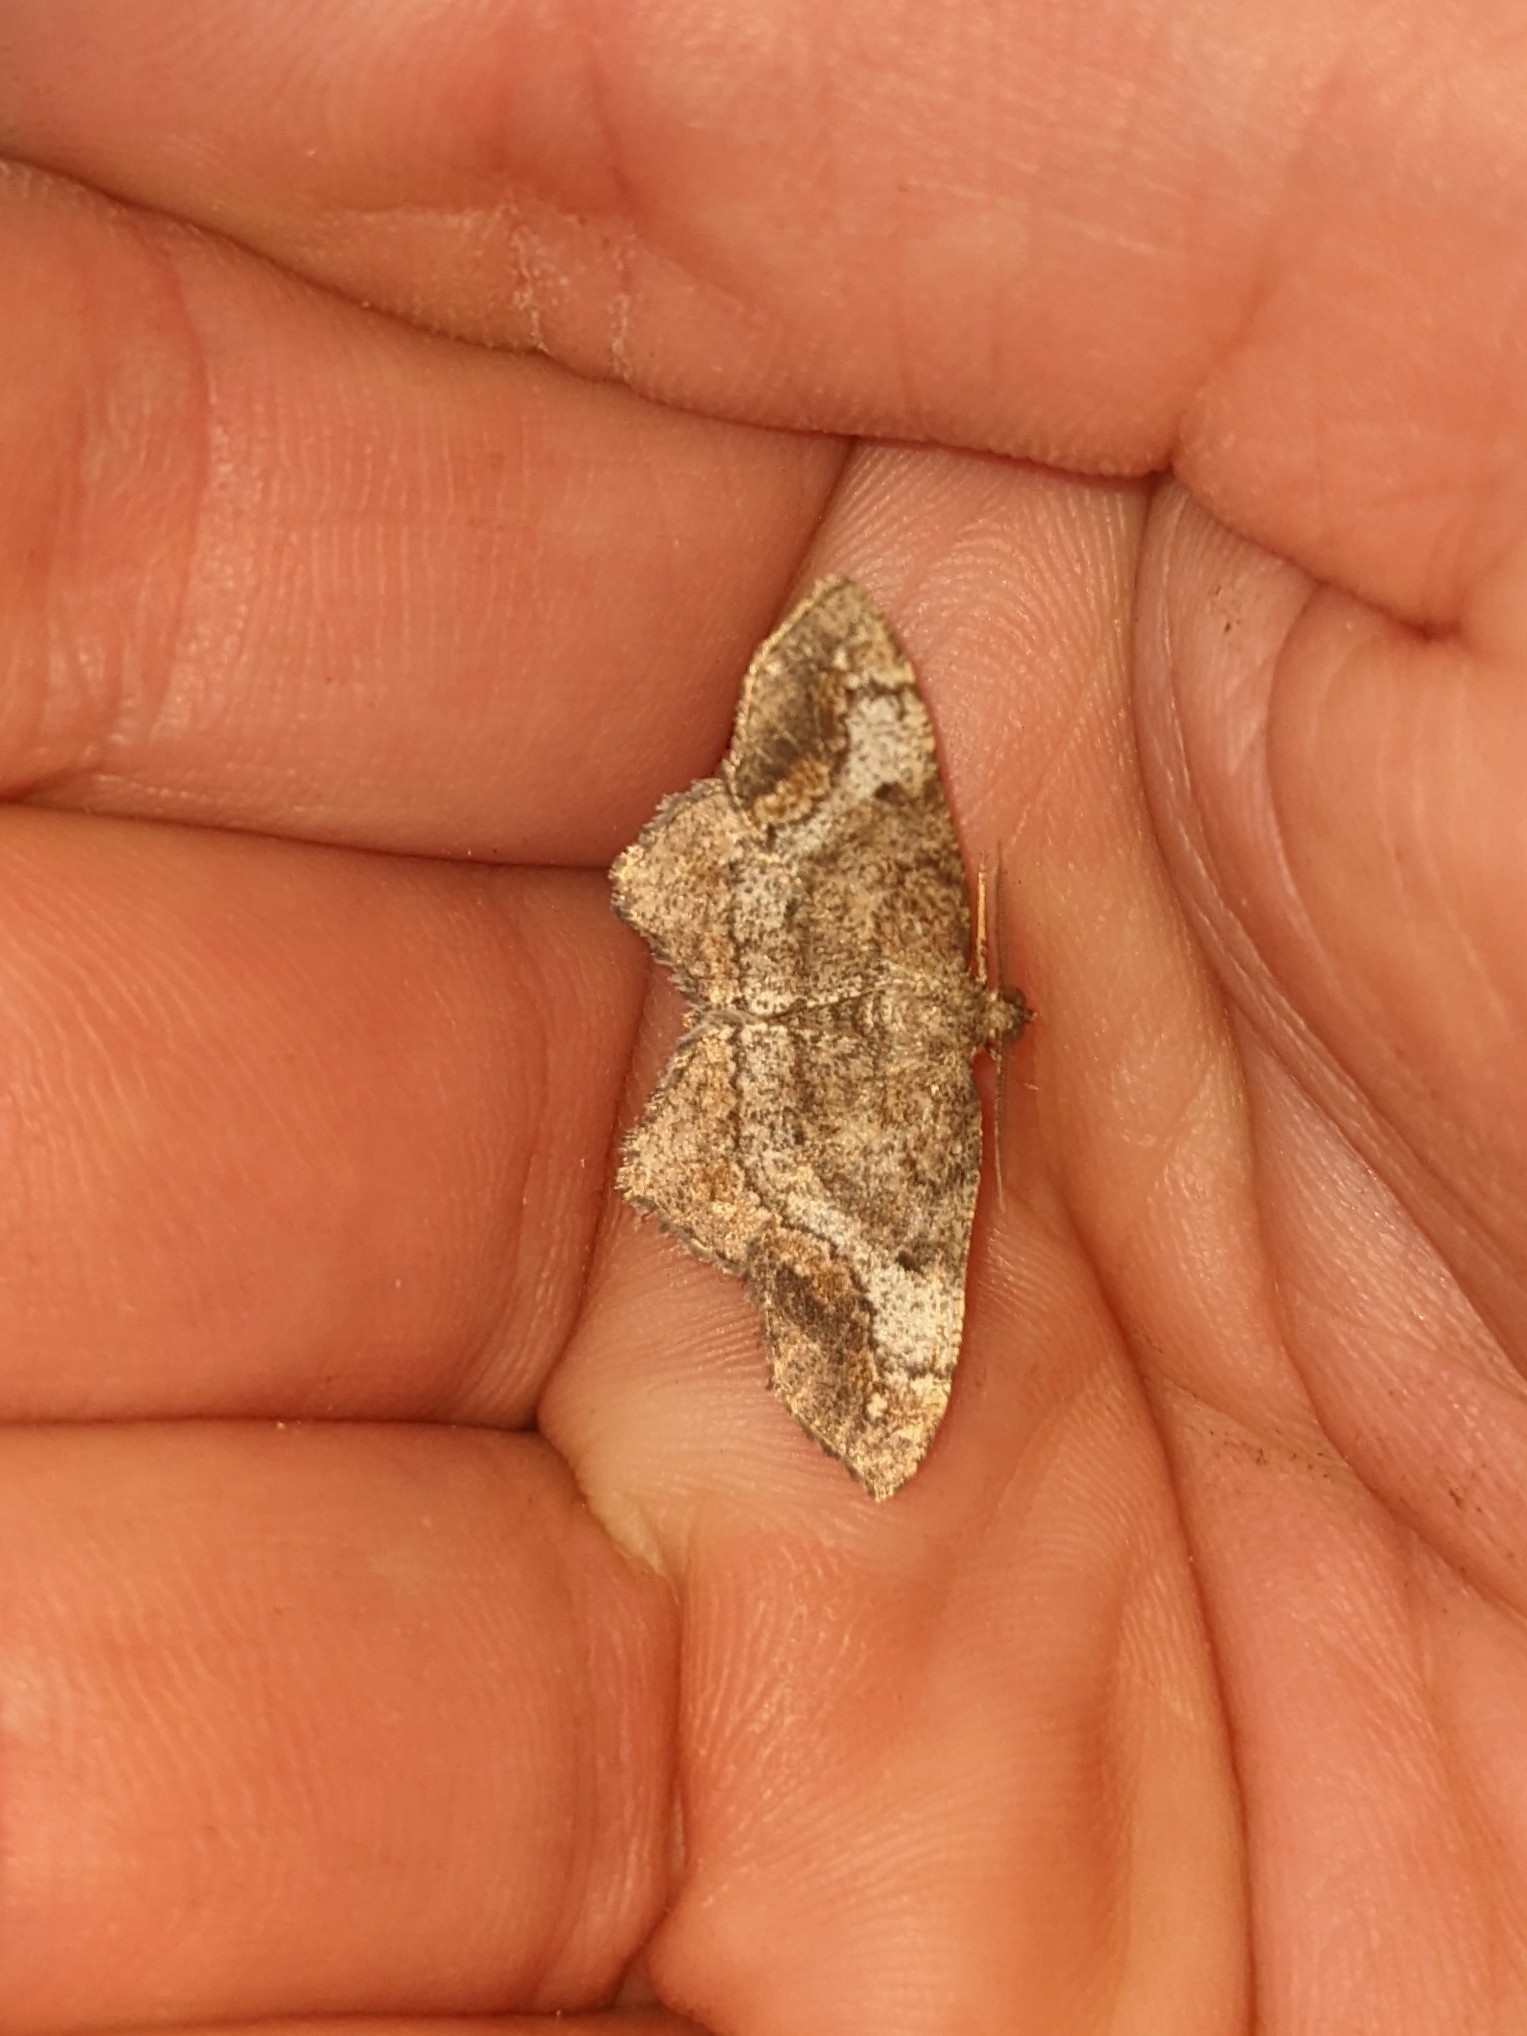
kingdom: Animalia
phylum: Arthropoda
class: Insecta
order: Lepidoptera
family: Geometridae
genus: Hypagyrtis
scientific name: Hypagyrtis unipunctata
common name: One-spotted variant
